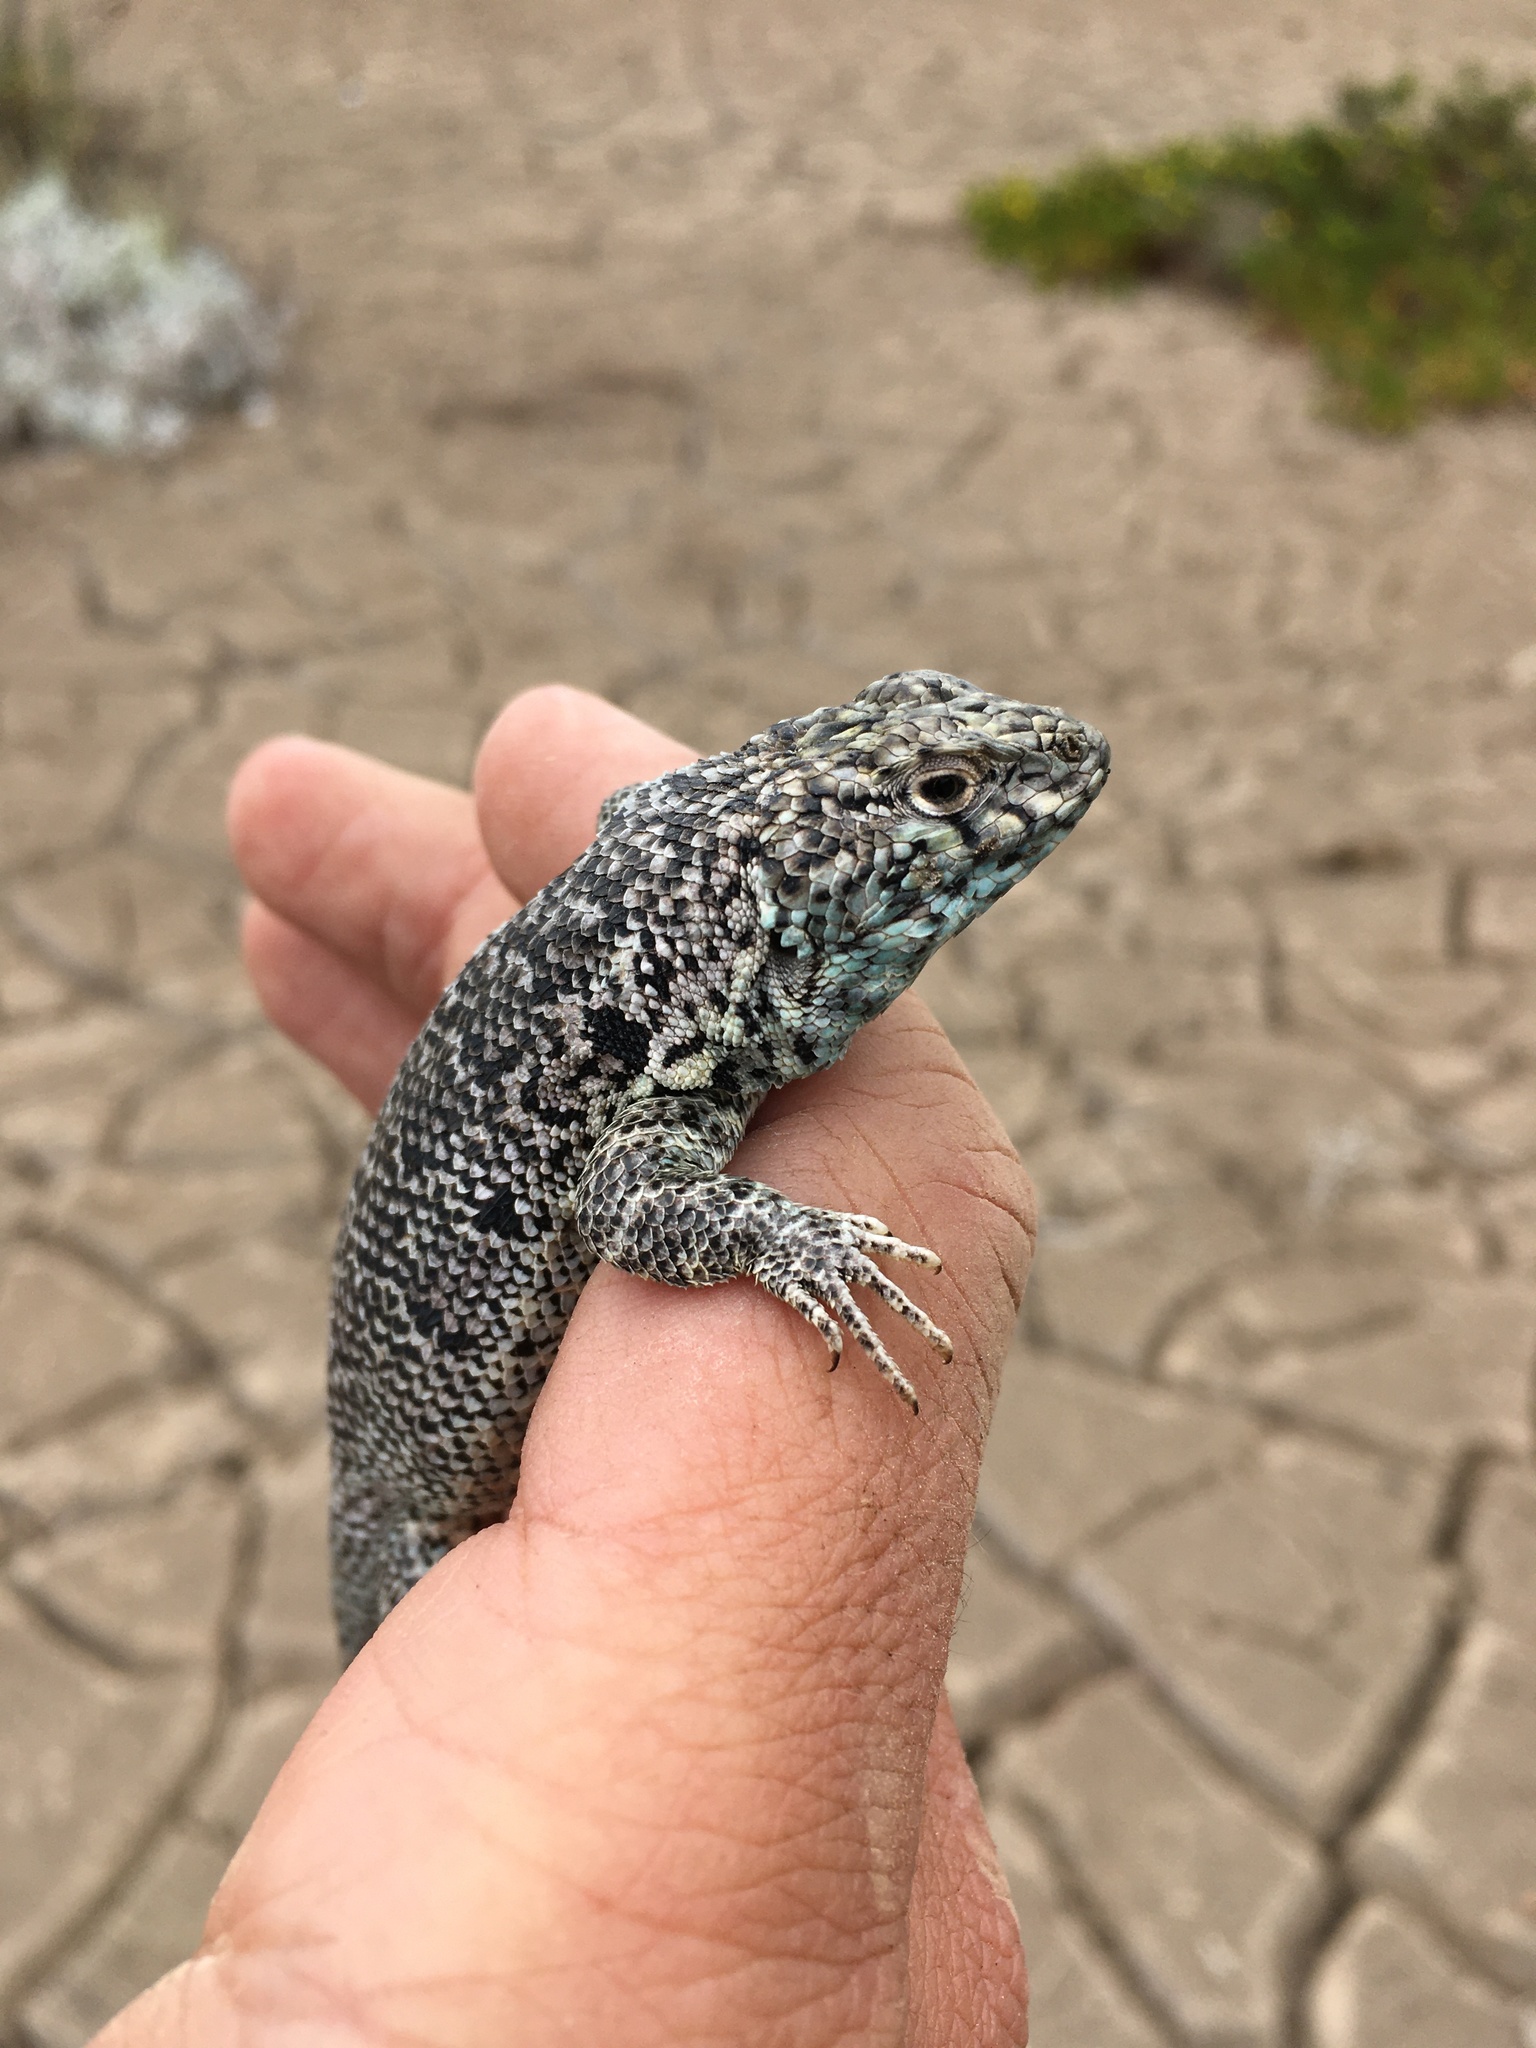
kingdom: Animalia
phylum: Chordata
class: Squamata
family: Liolaemidae
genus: Liolaemus
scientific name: Liolaemus nigromaculatus
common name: Many-spotted tree iguana
